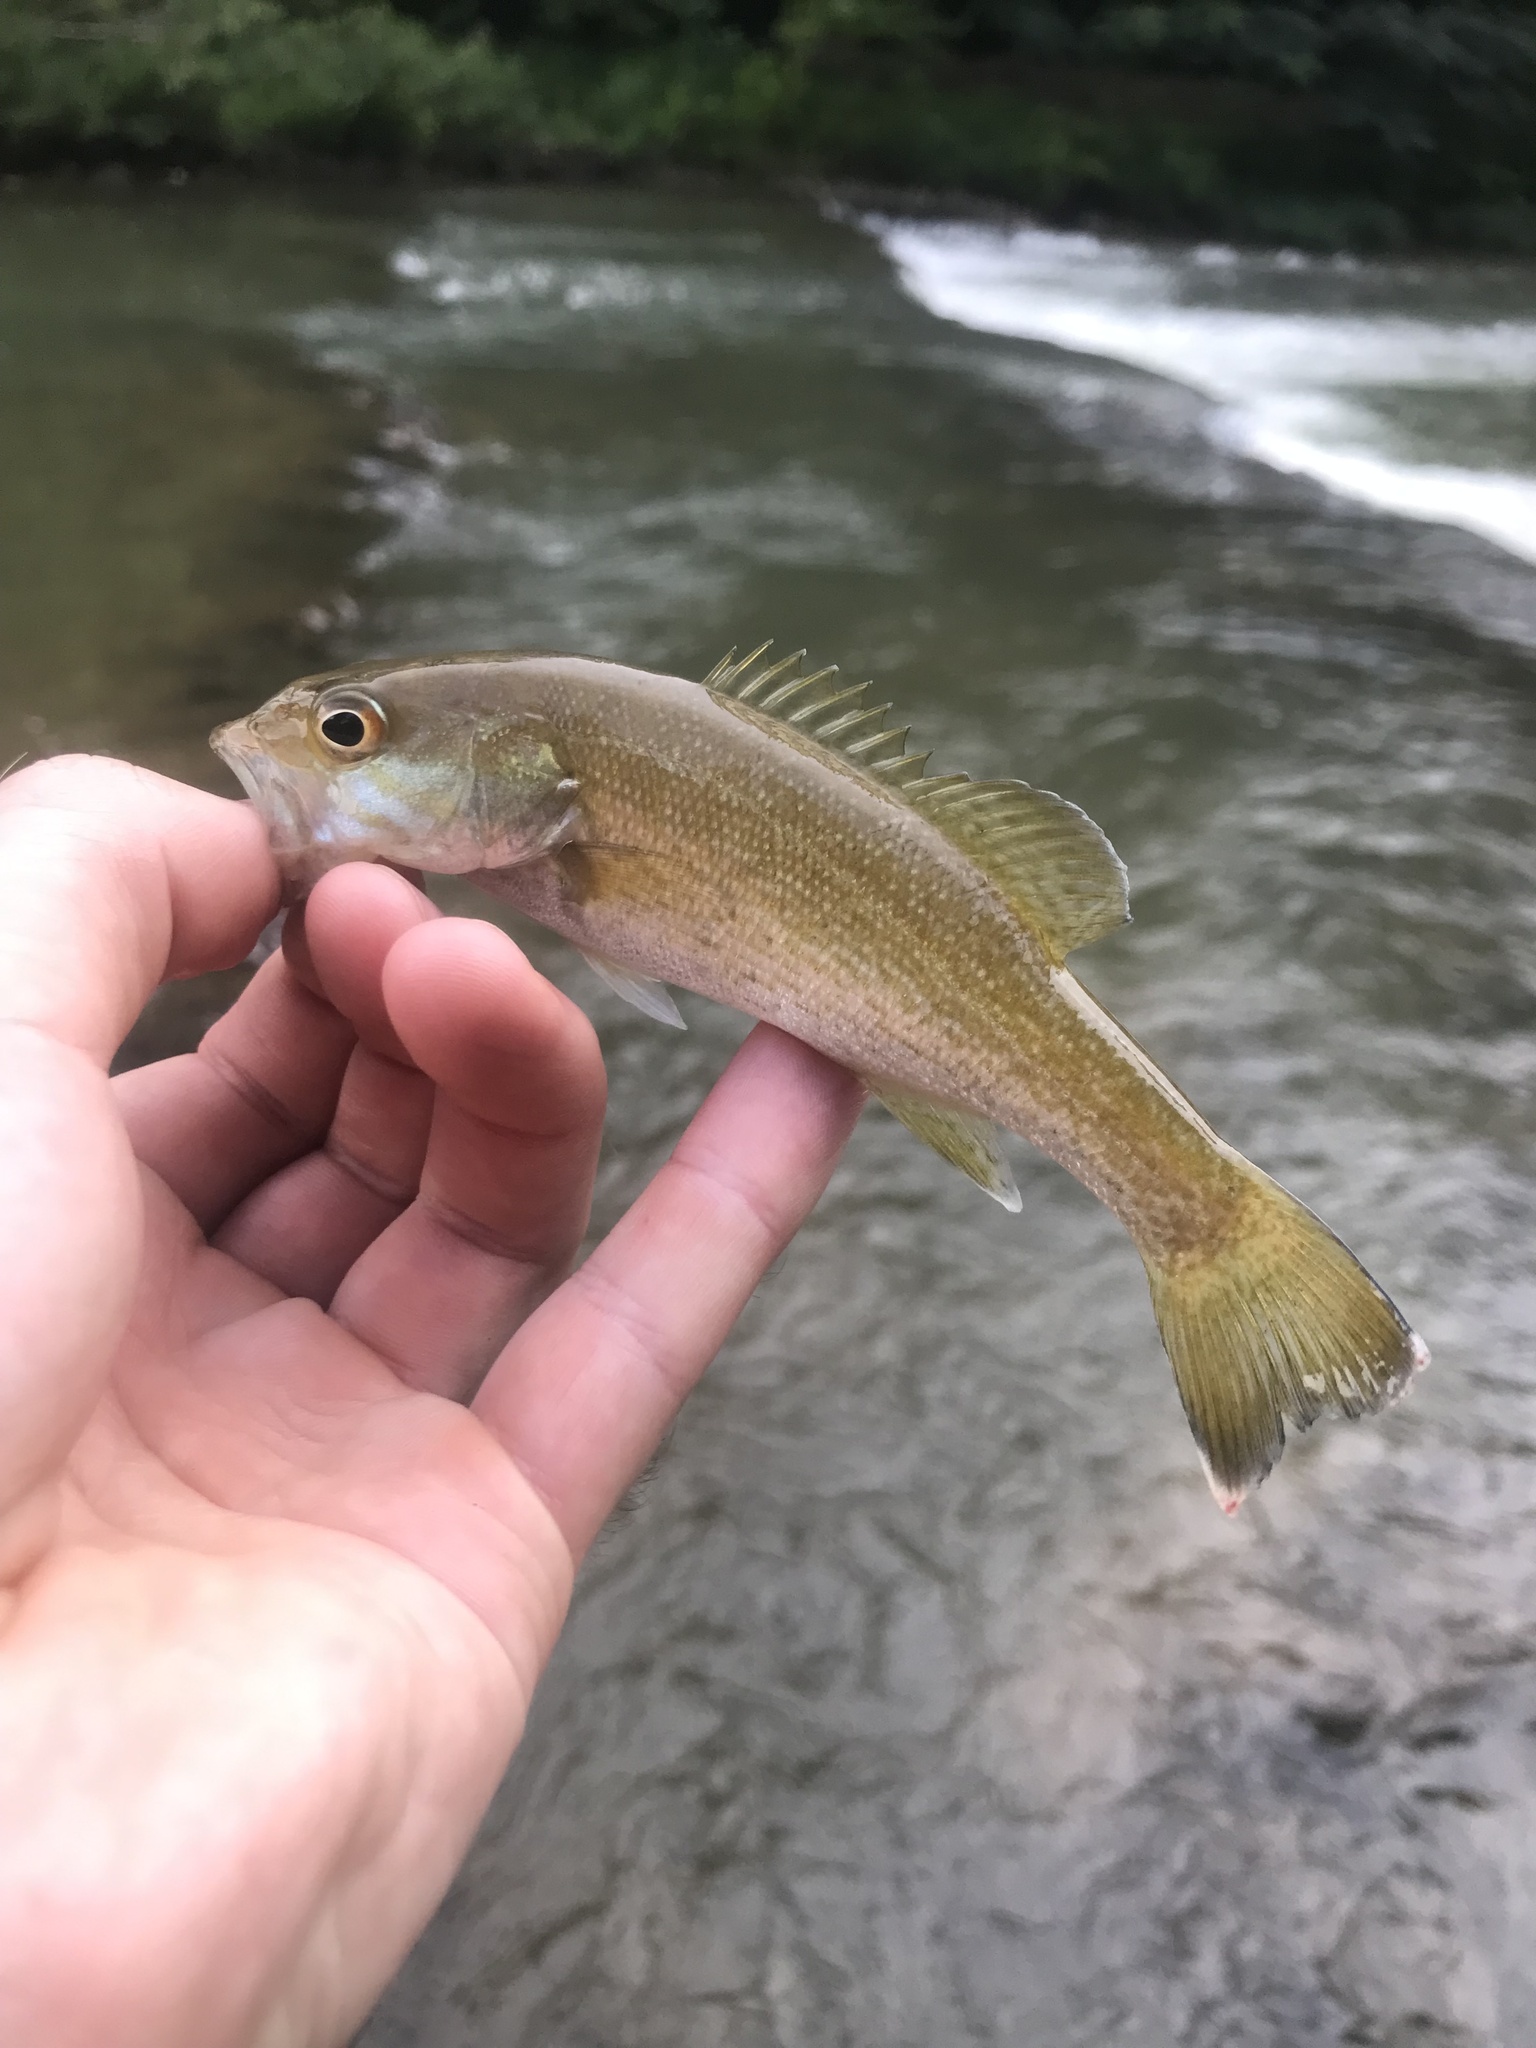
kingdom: Animalia
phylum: Chordata
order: Perciformes
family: Centrarchidae
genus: Micropterus
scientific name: Micropterus cahabae
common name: Cahaba bass
